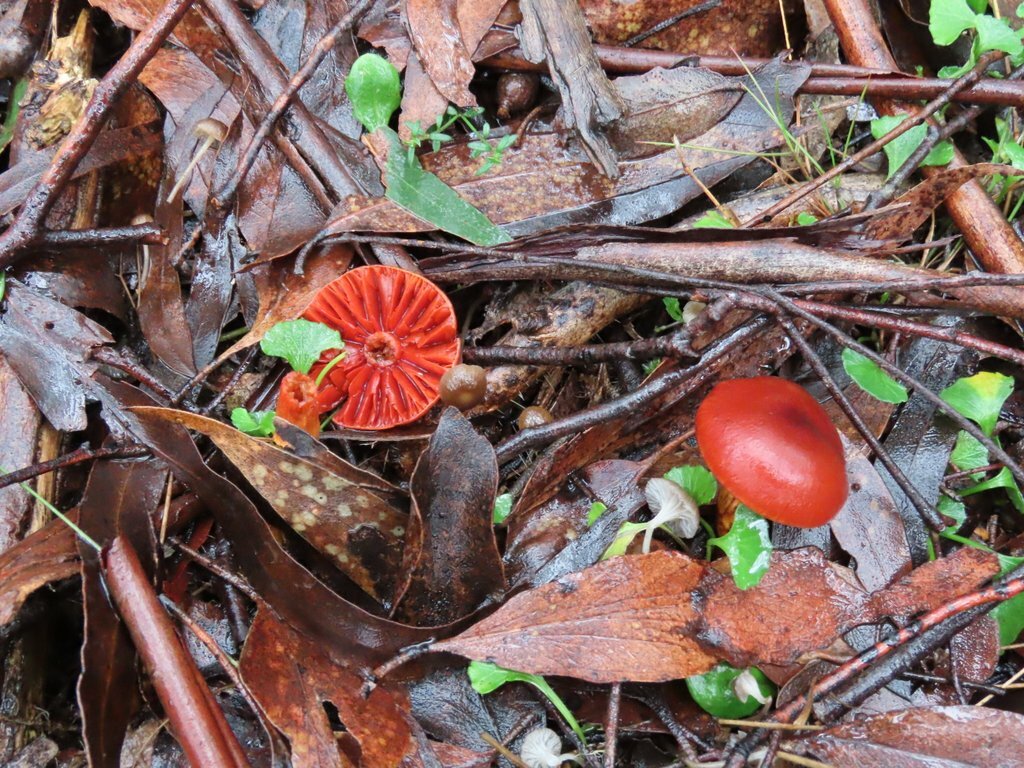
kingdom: Fungi
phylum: Basidiomycota
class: Agaricomycetes
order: Agaricales
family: Mycenaceae
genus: Cruentomycena
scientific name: Cruentomycena viscidocruenta
